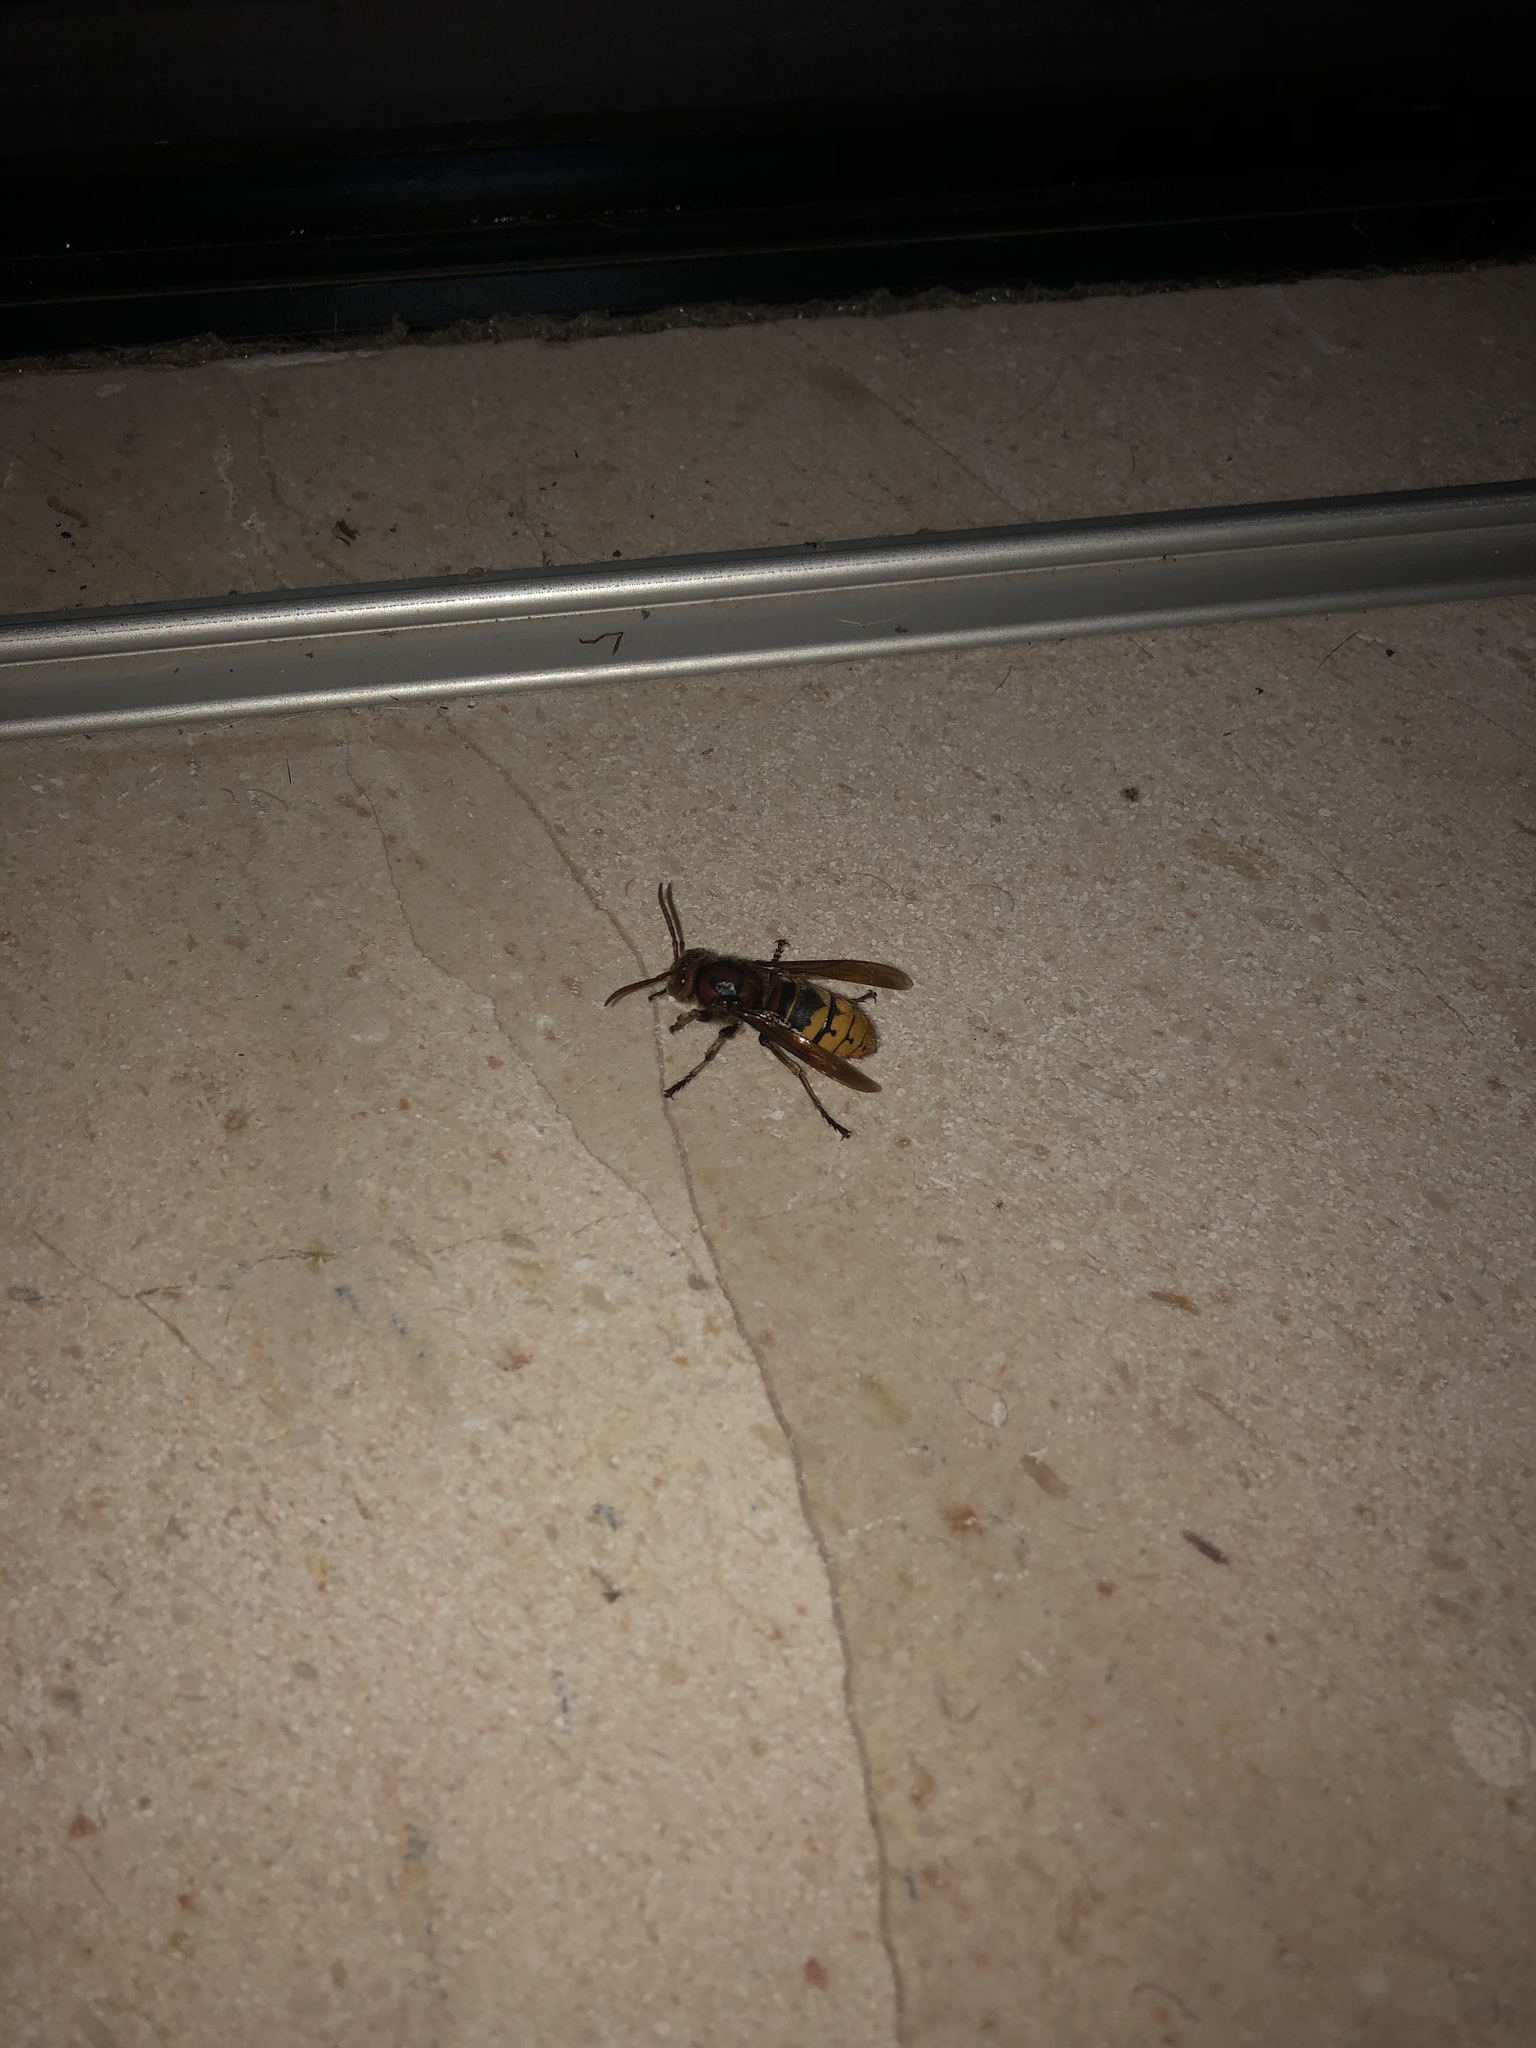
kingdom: Animalia
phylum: Arthropoda
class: Insecta
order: Hymenoptera
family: Vespidae
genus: Vespa
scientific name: Vespa crabro
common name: Hornet
